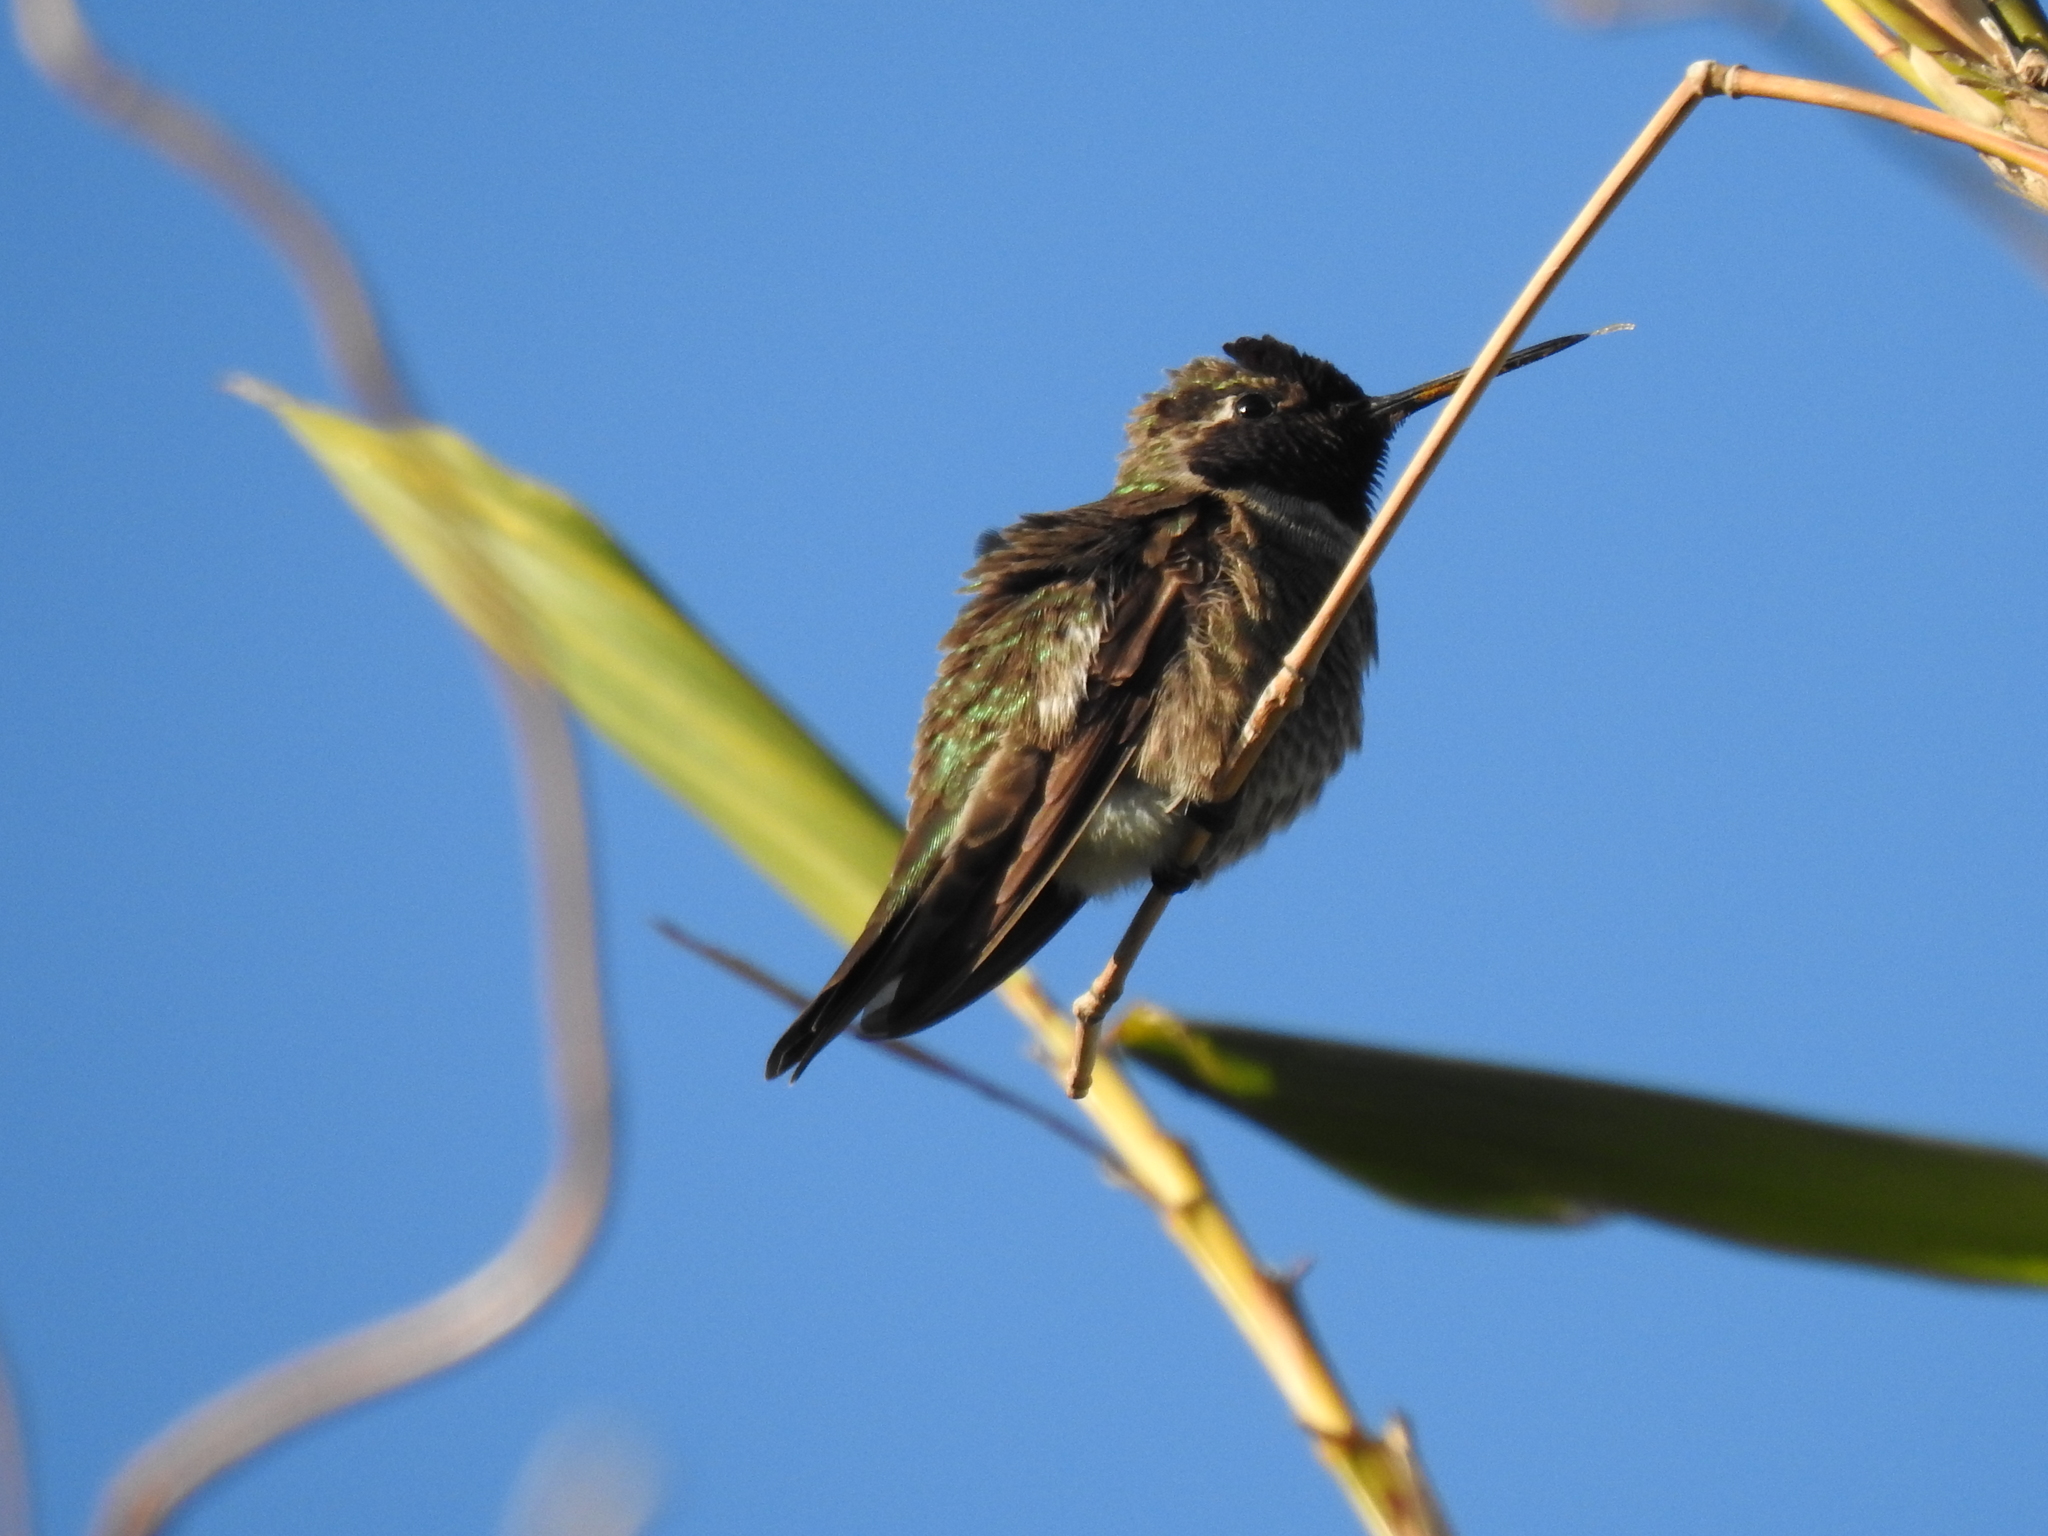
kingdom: Animalia
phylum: Chordata
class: Aves
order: Apodiformes
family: Trochilidae
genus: Calypte
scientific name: Calypte anna
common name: Anna's hummingbird
